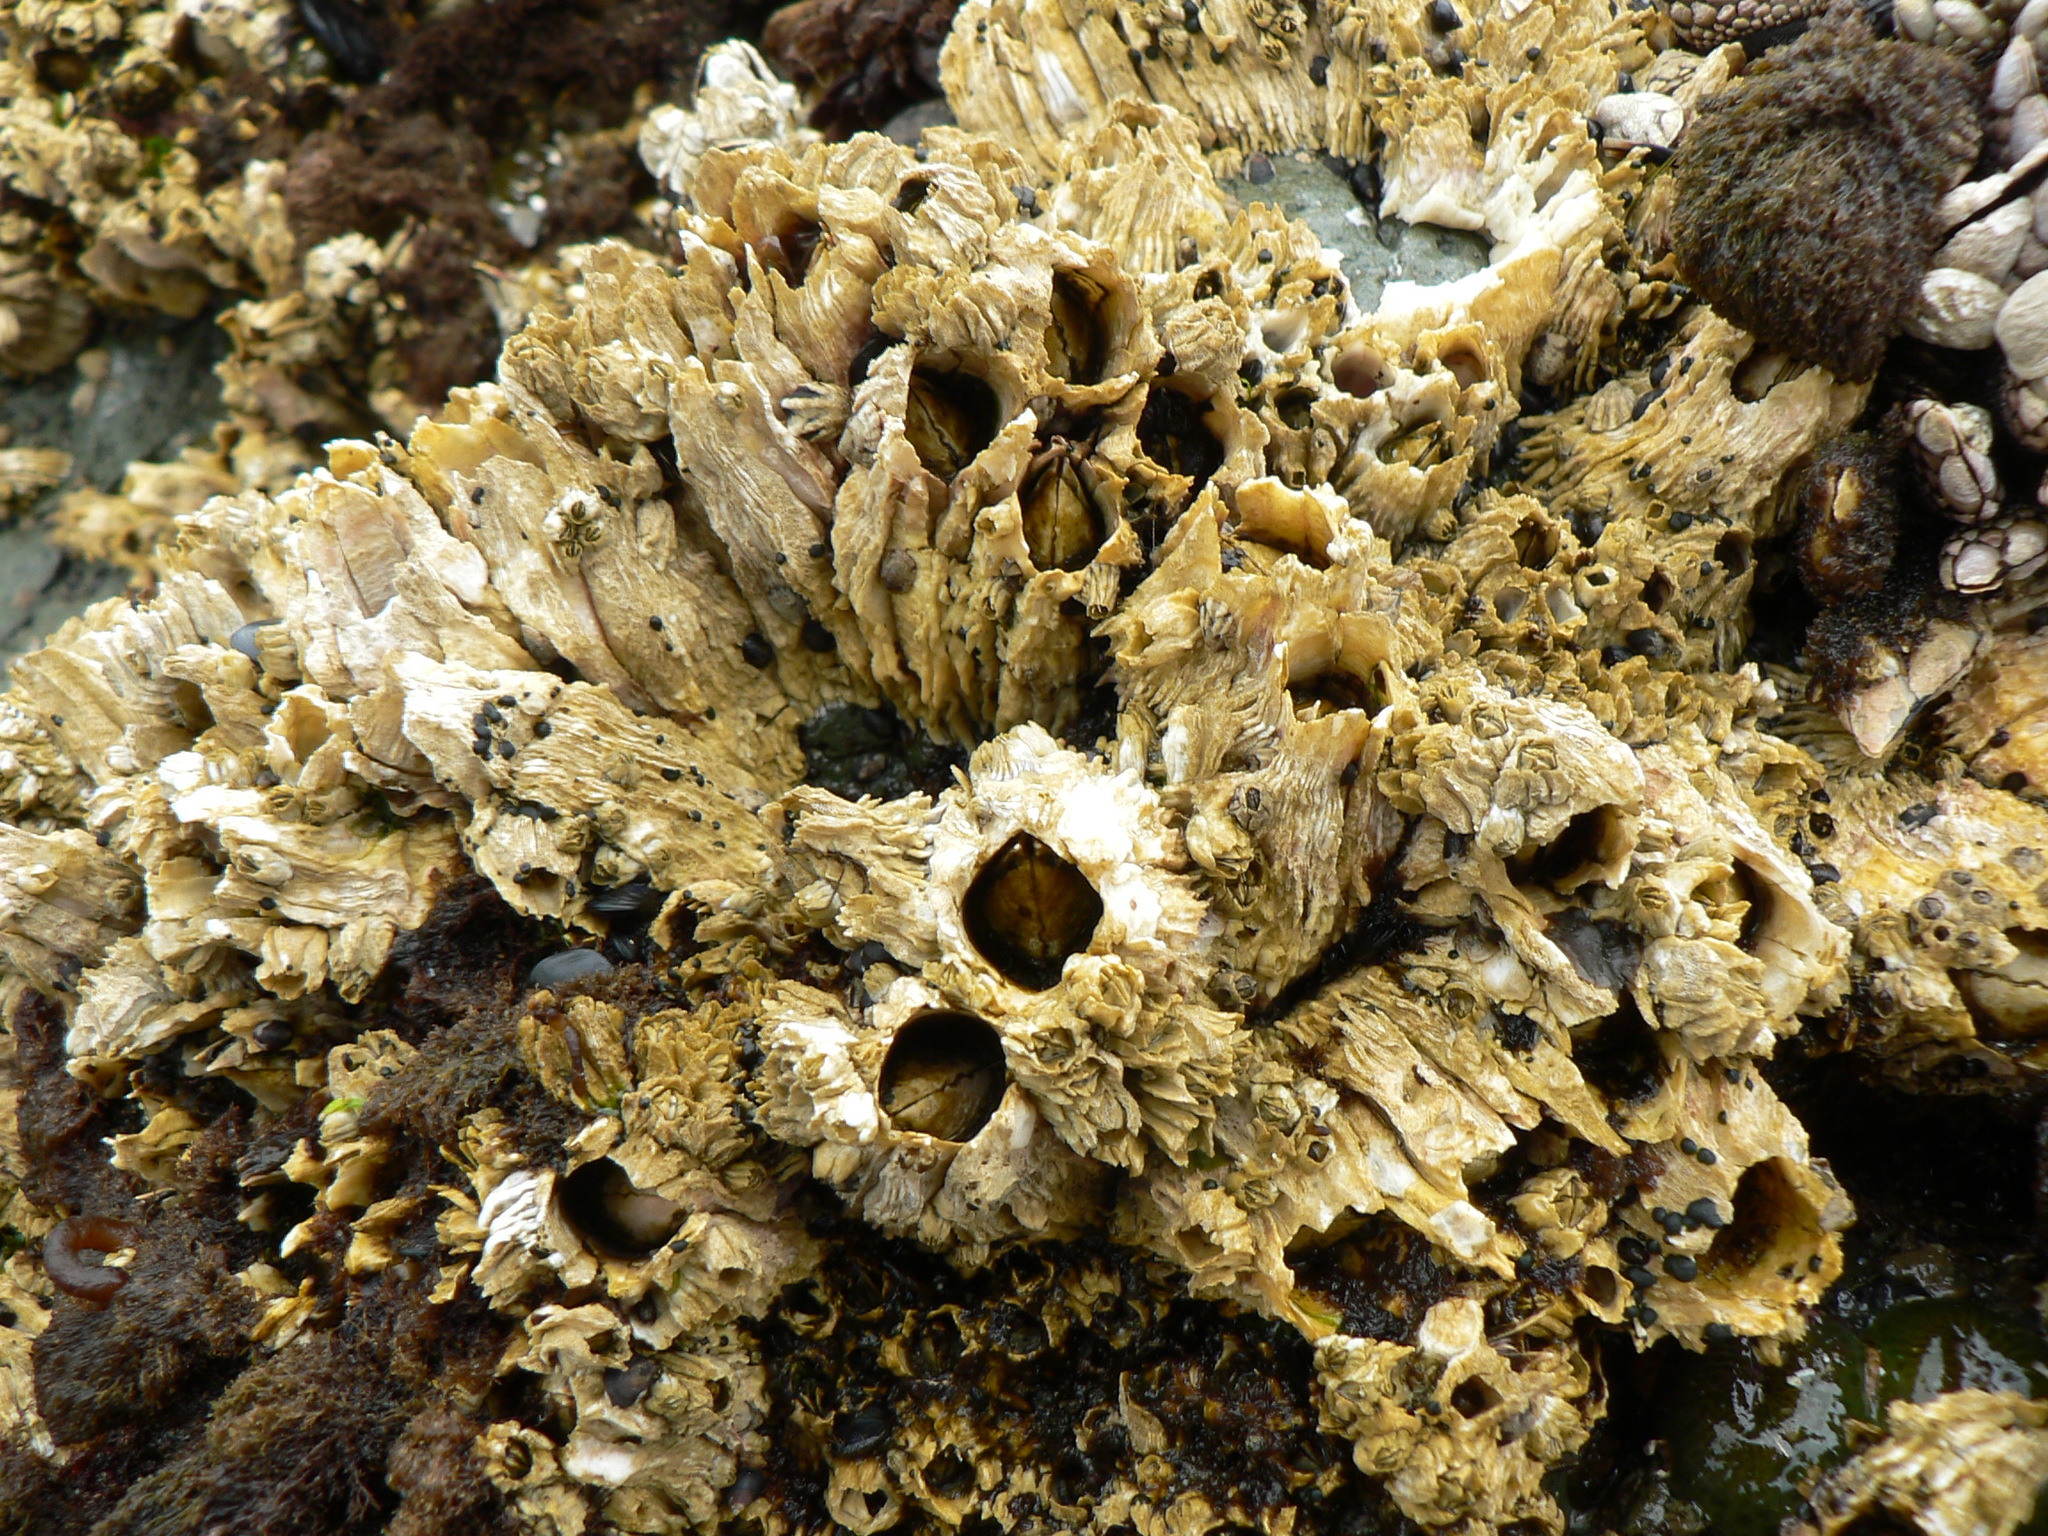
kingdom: Animalia
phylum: Arthropoda
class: Maxillopoda
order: Sessilia
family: Archaeobalanidae
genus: Semibalanus
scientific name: Semibalanus cariosus
